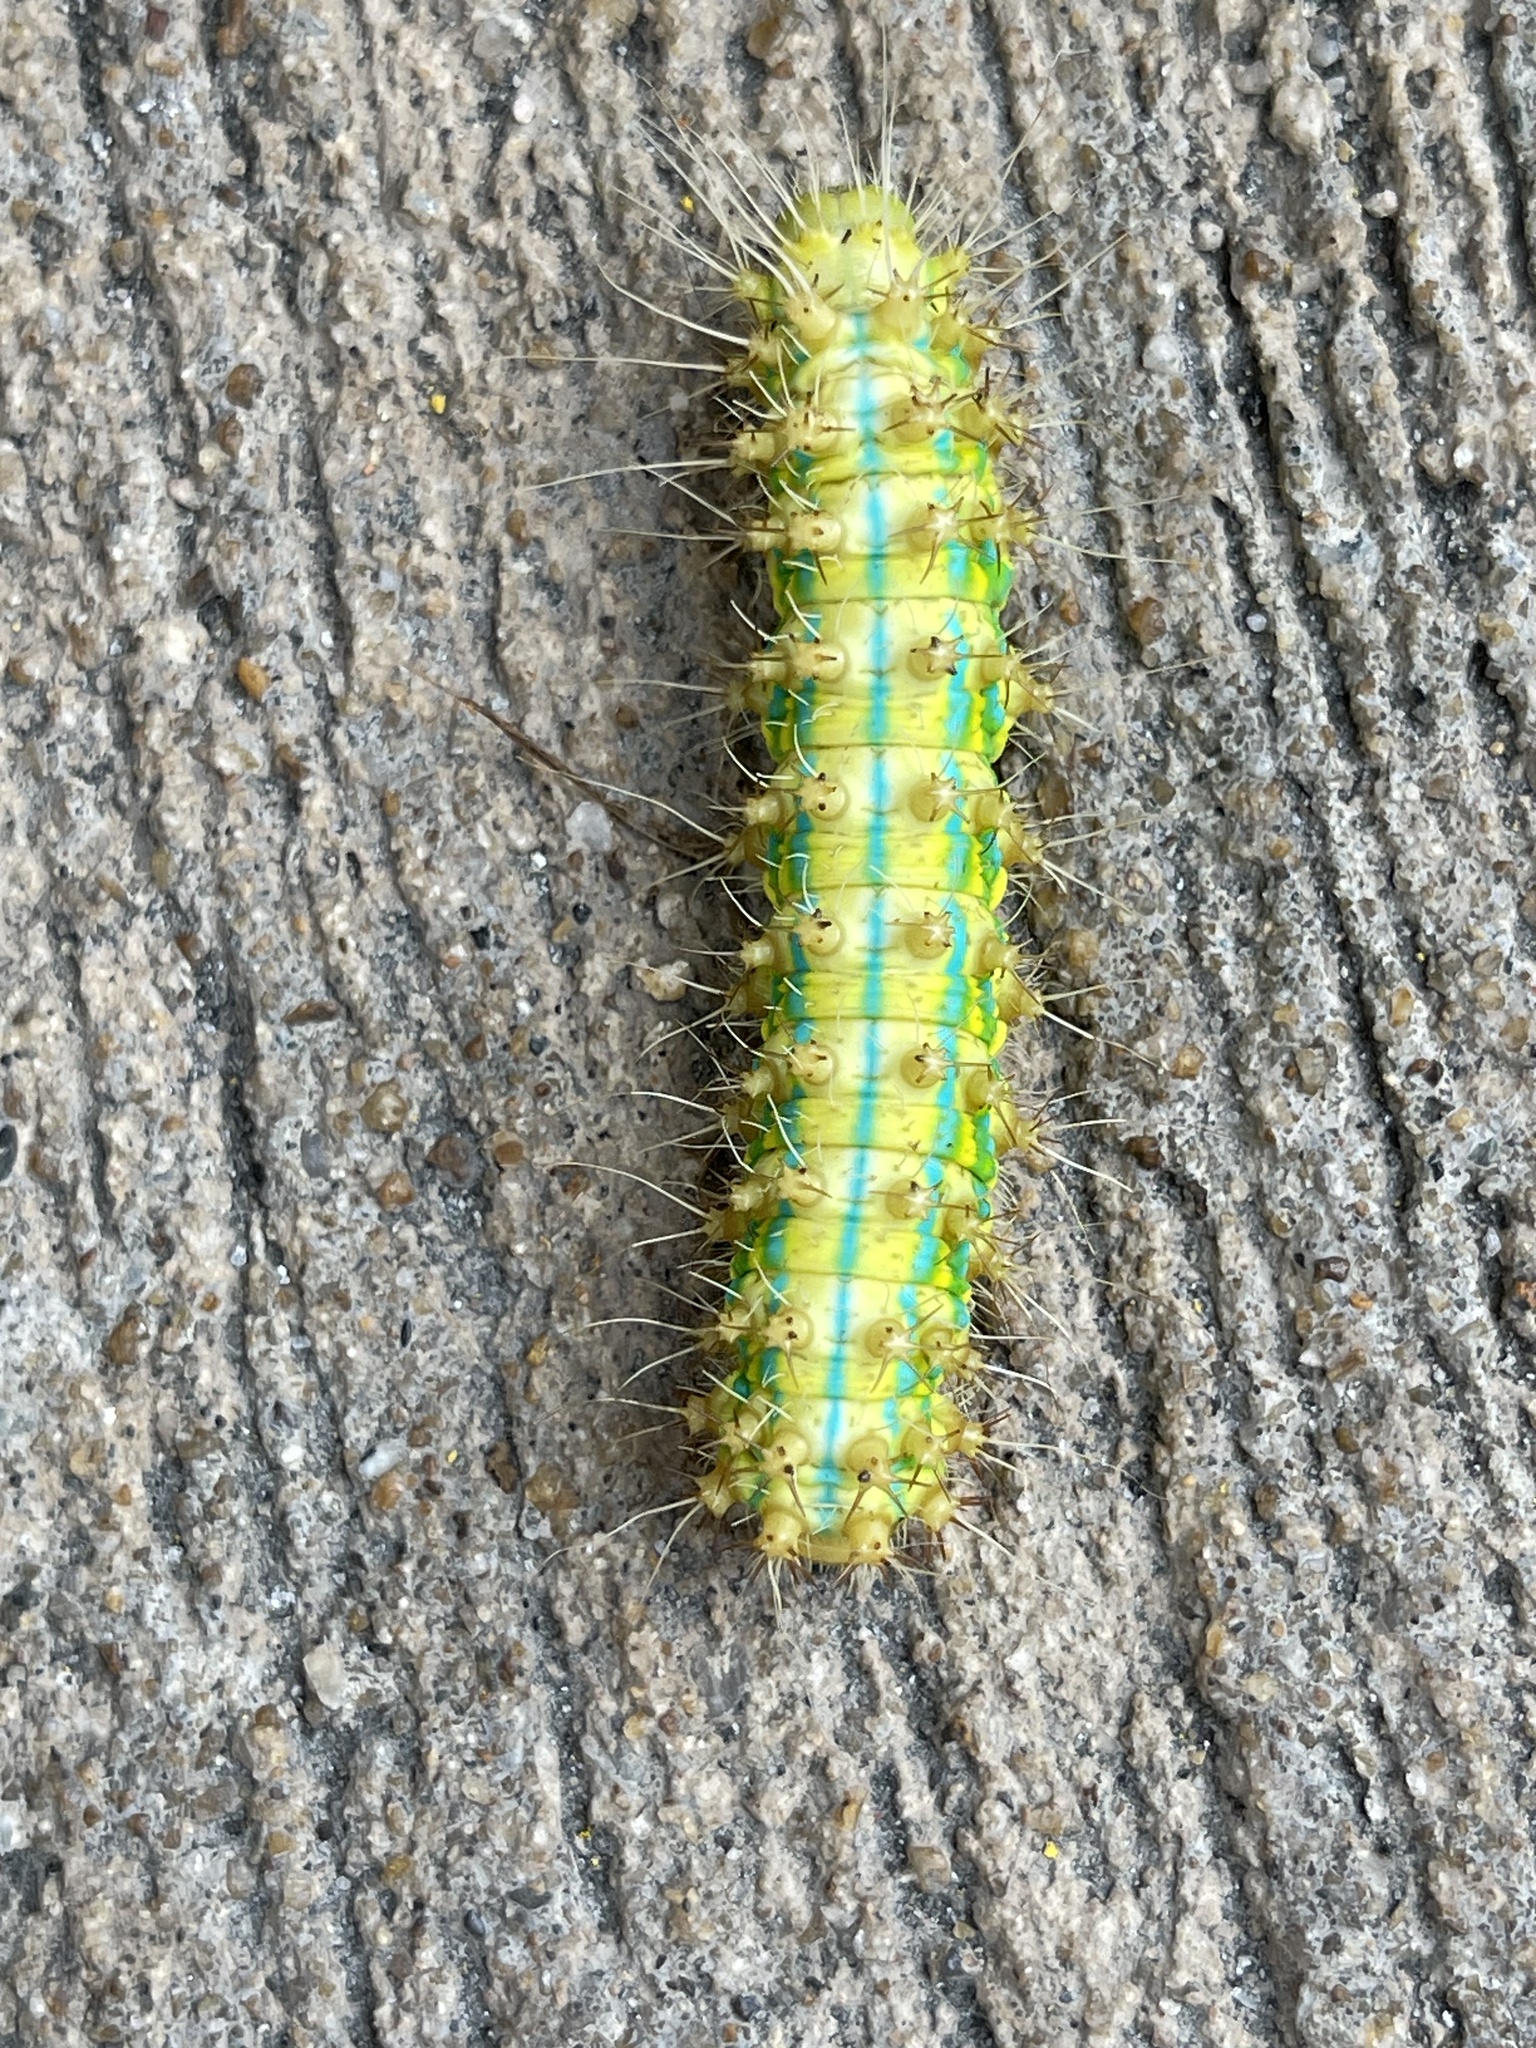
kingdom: Animalia
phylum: Arthropoda
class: Insecta
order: Lepidoptera
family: Saturniidae
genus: Saturnia
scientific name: Saturnia pyretorum
